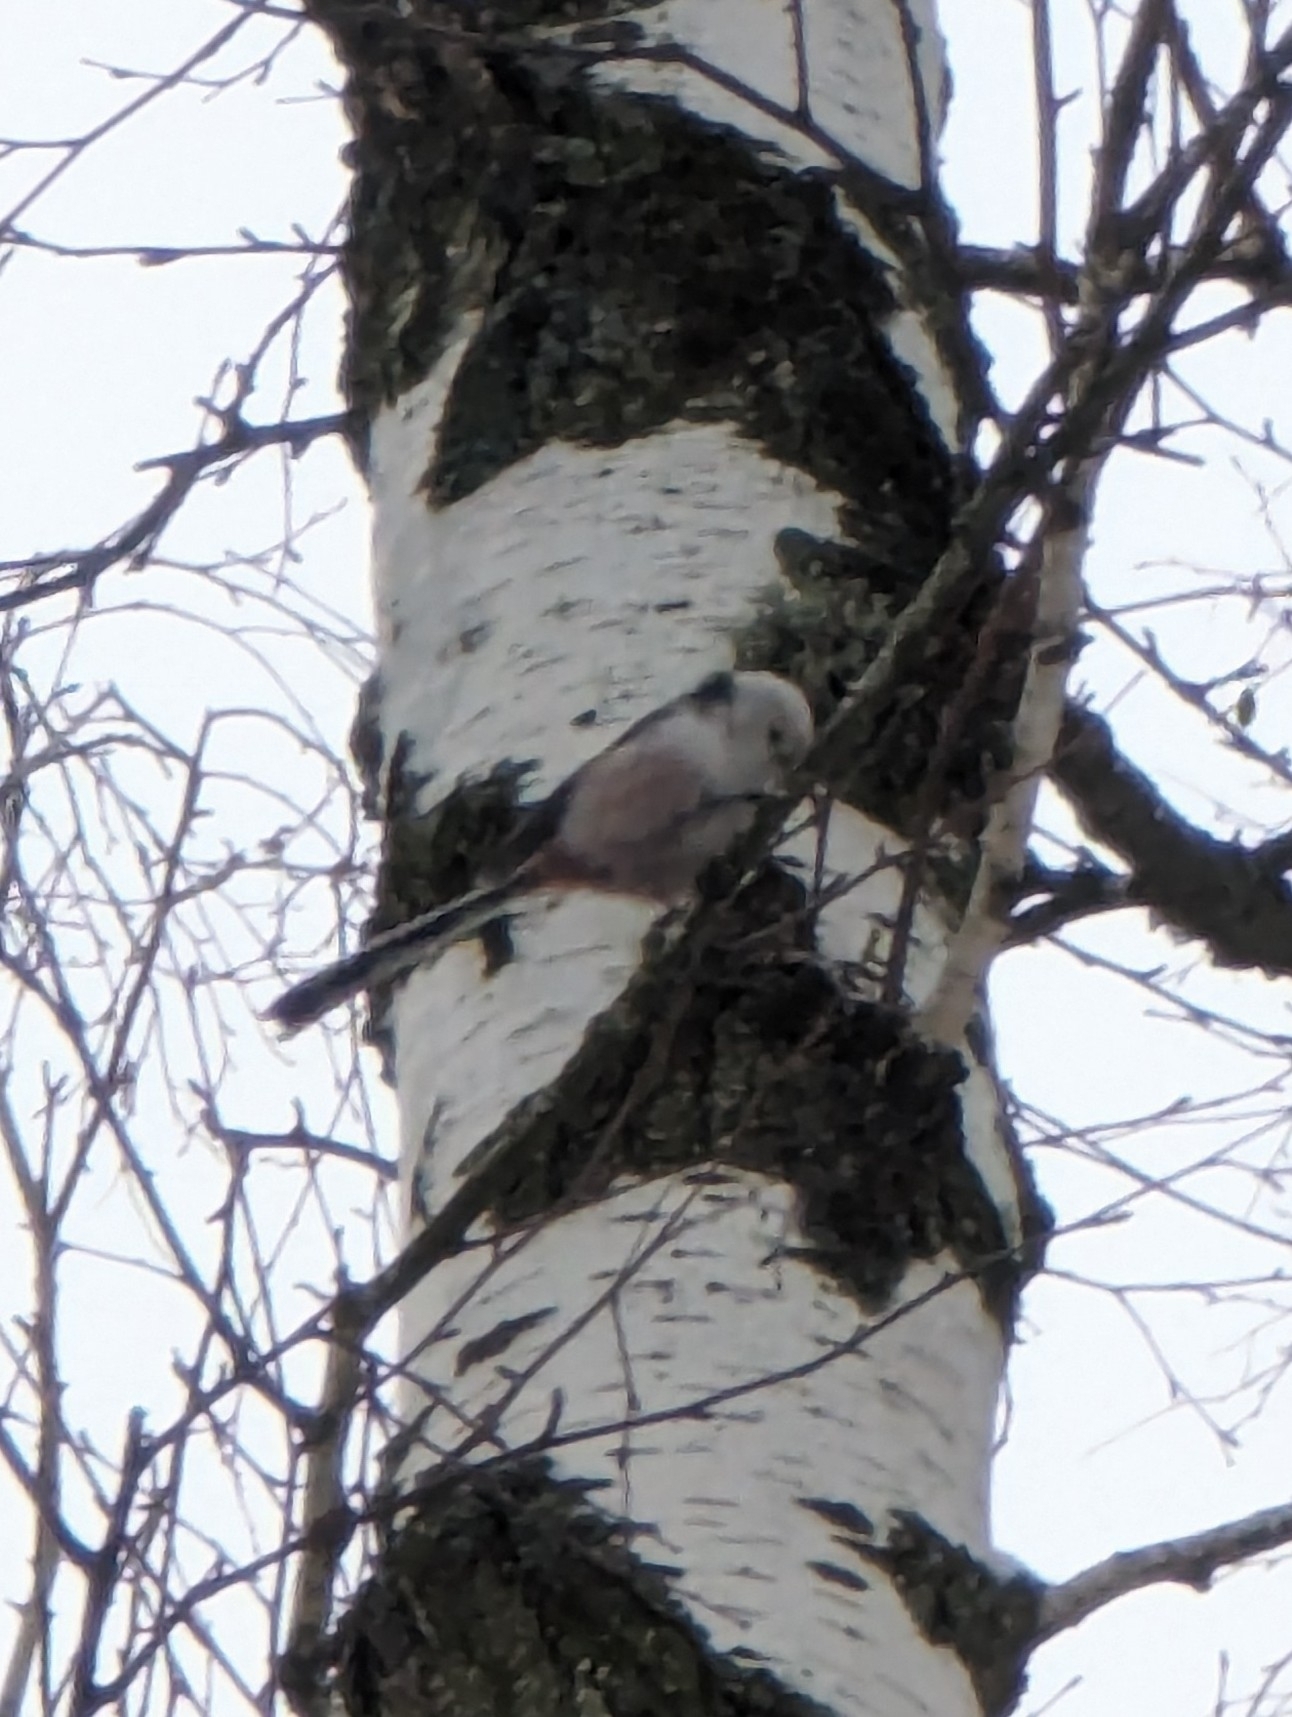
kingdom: Animalia
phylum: Chordata
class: Aves
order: Passeriformes
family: Aegithalidae
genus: Aegithalos
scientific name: Aegithalos caudatus
